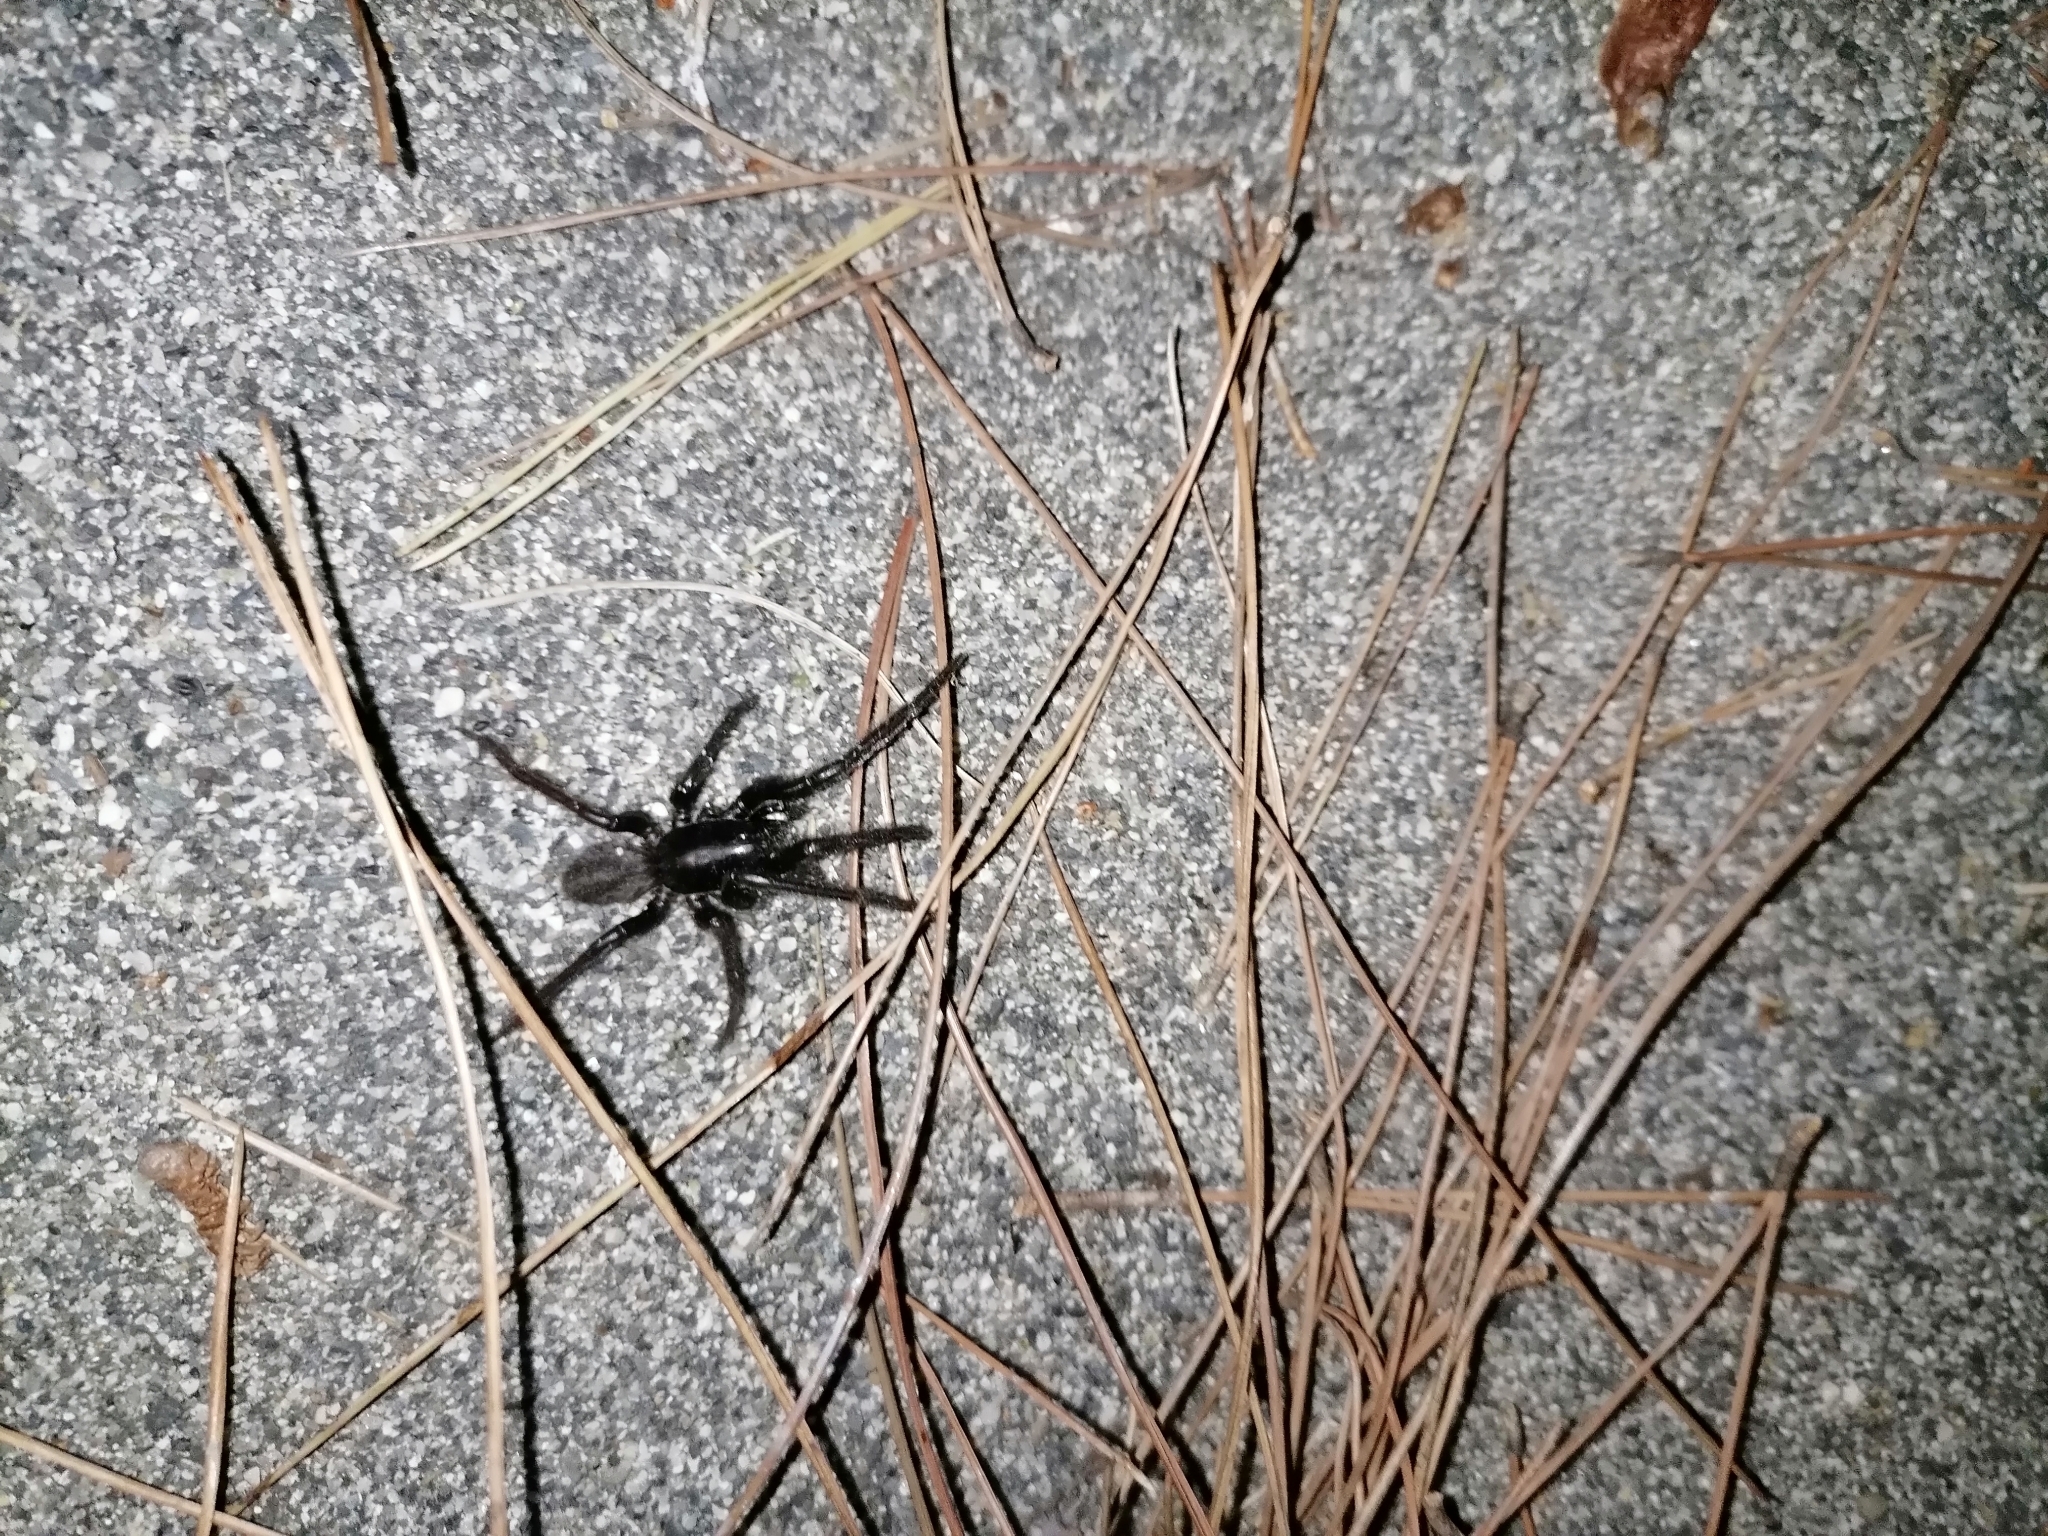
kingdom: Animalia
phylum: Arthropoda
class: Arachnida
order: Araneae
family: Segestriidae
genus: Segestria
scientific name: Segestria florentina
